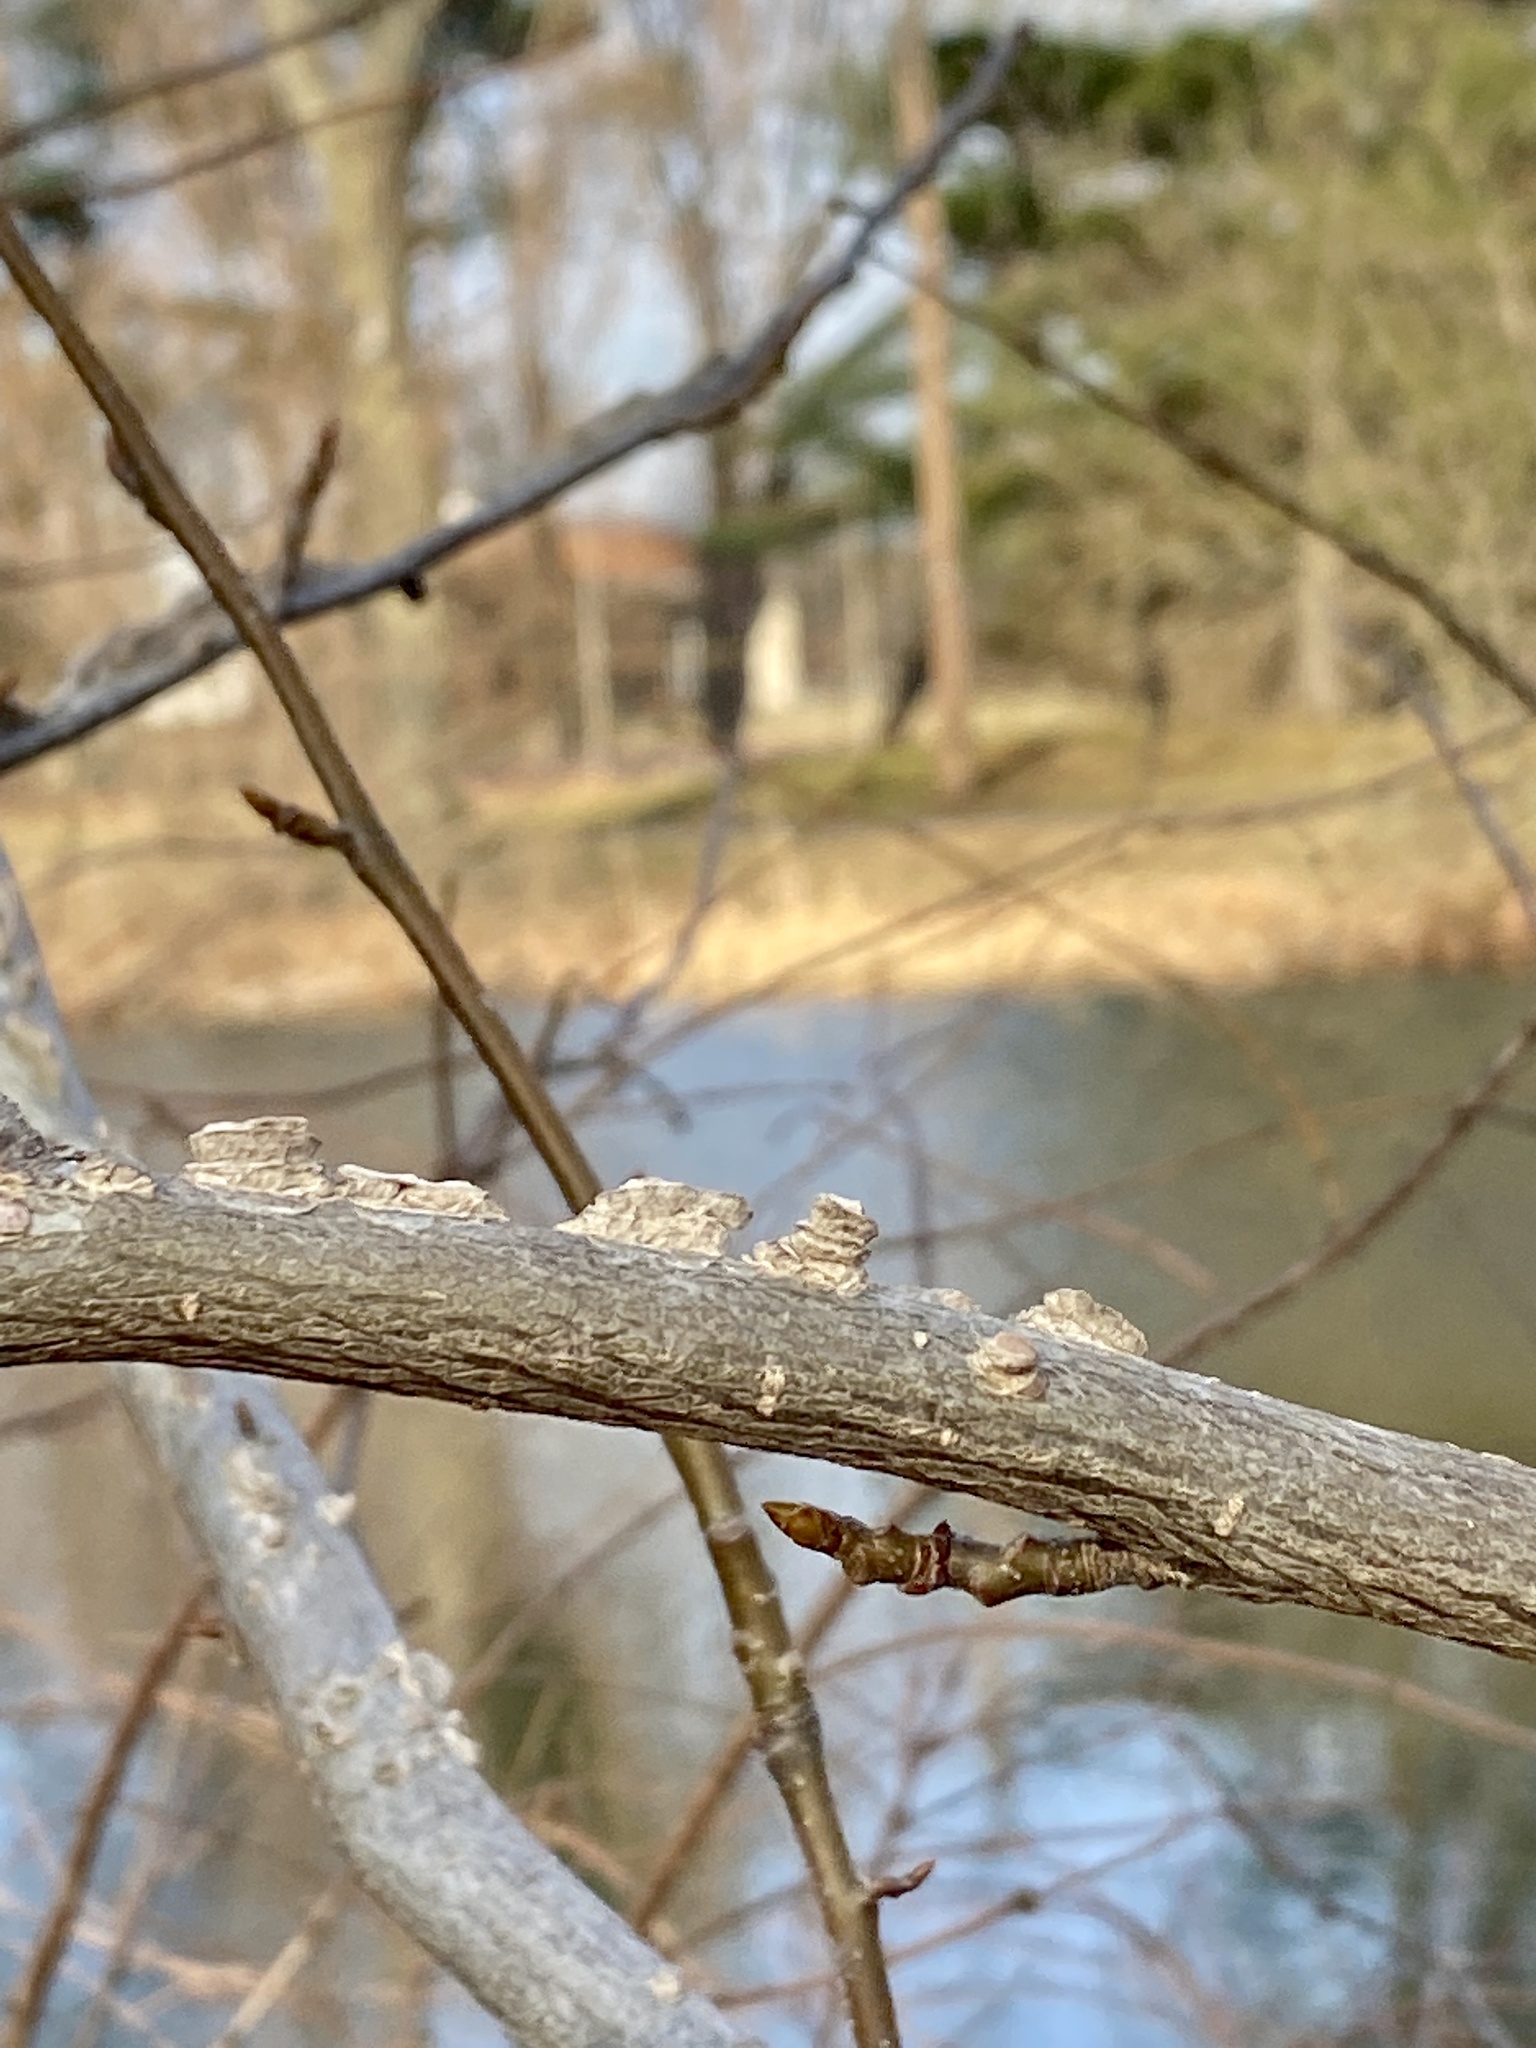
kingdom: Plantae
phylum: Tracheophyta
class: Magnoliopsida
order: Saxifragales
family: Altingiaceae
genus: Liquidambar
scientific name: Liquidambar styraciflua
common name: Sweet gum
